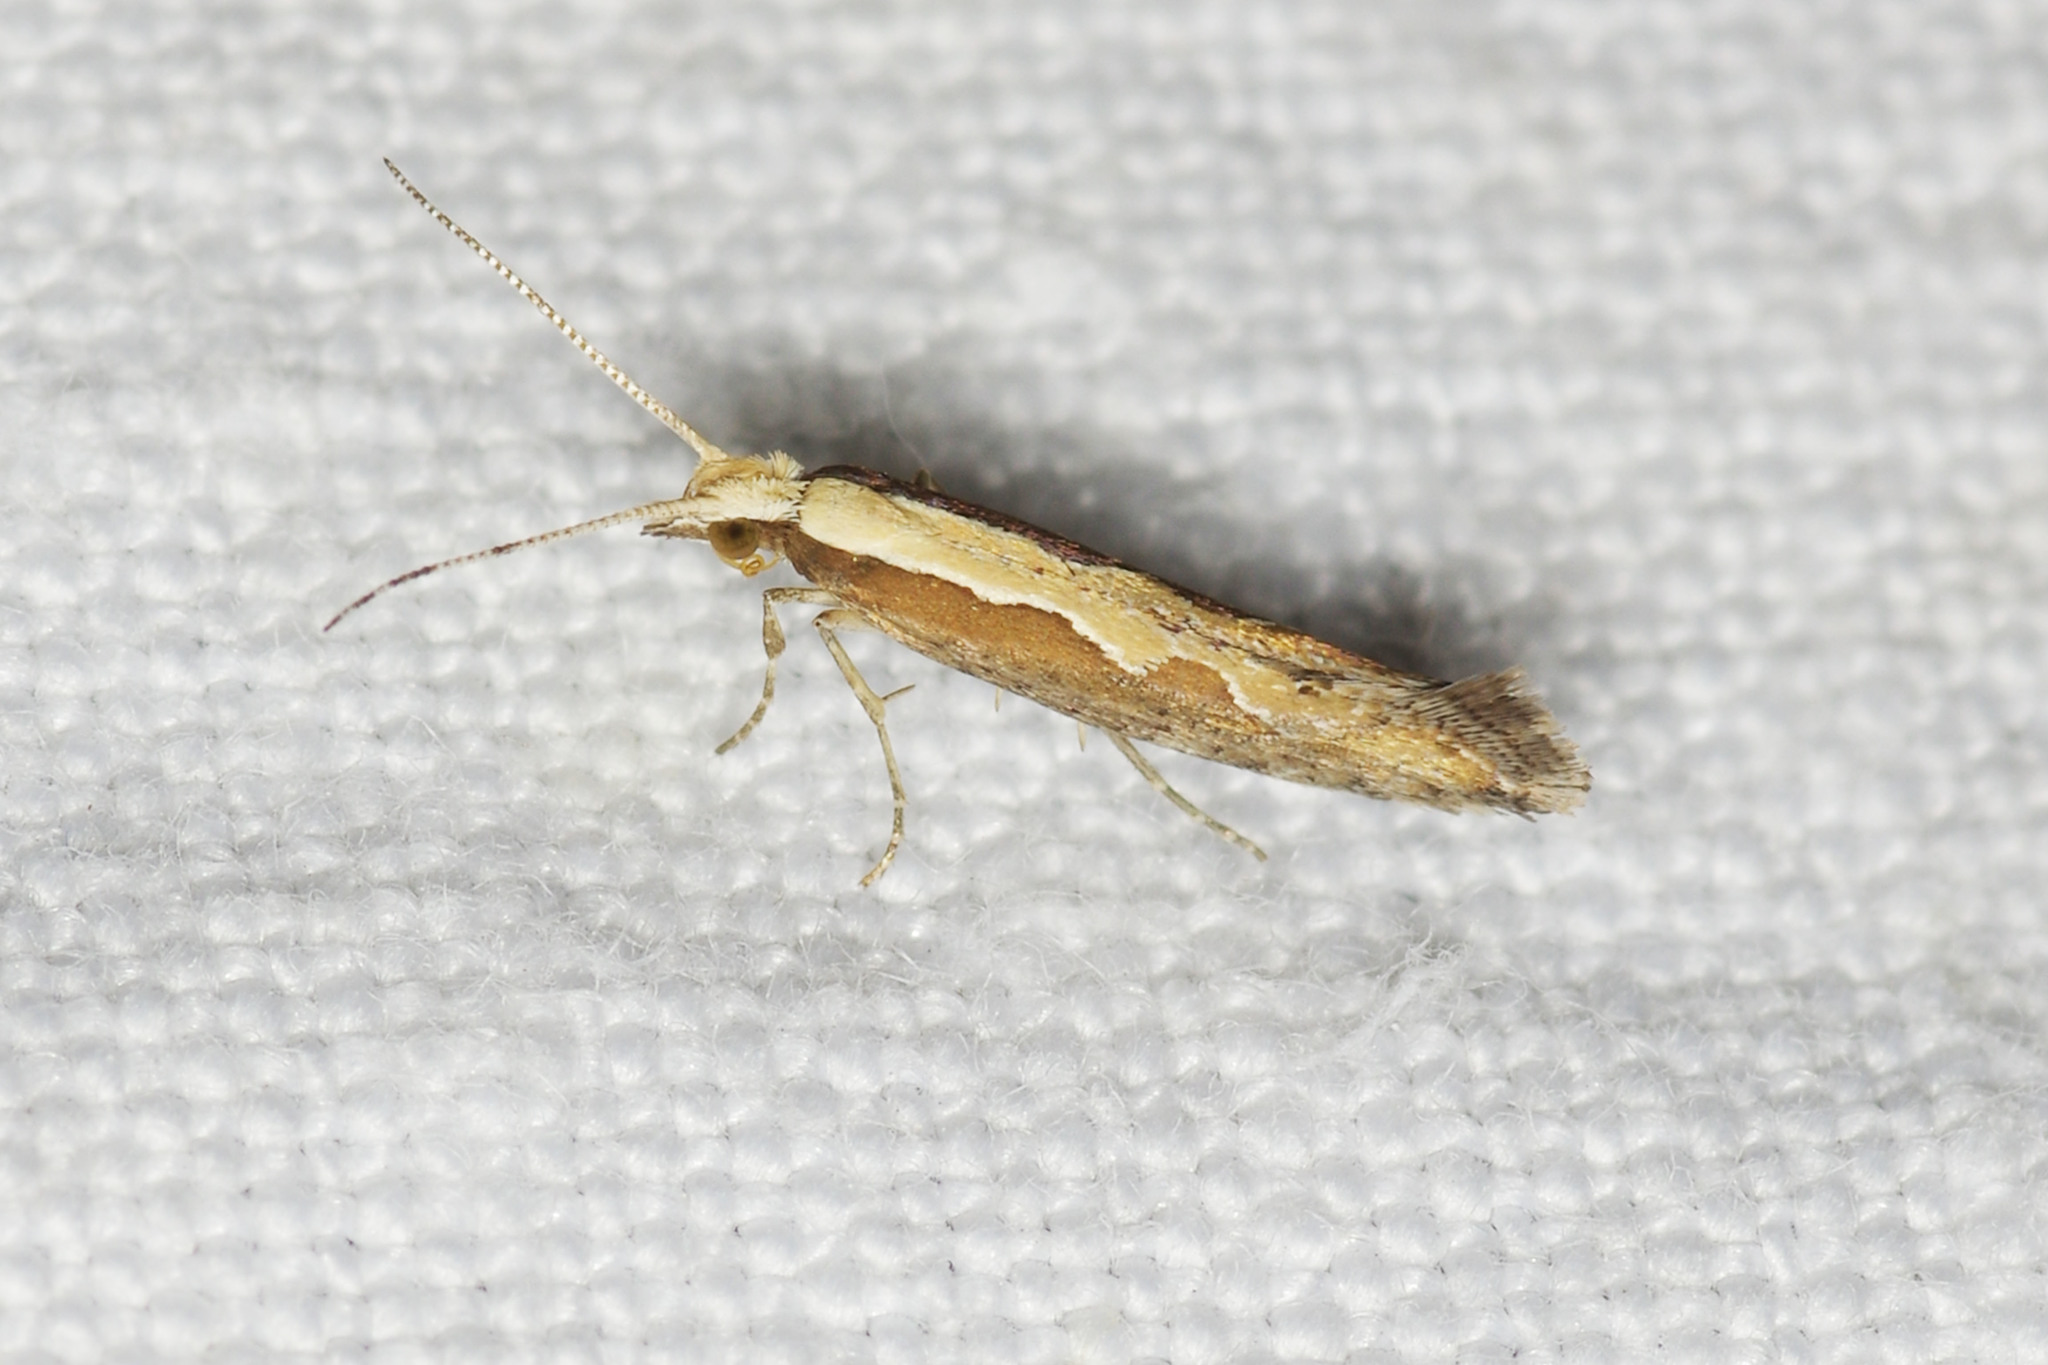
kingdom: Animalia
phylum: Arthropoda
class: Insecta
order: Lepidoptera
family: Plutellidae
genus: Plutella
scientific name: Plutella xylostella
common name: Diamond-back moth
